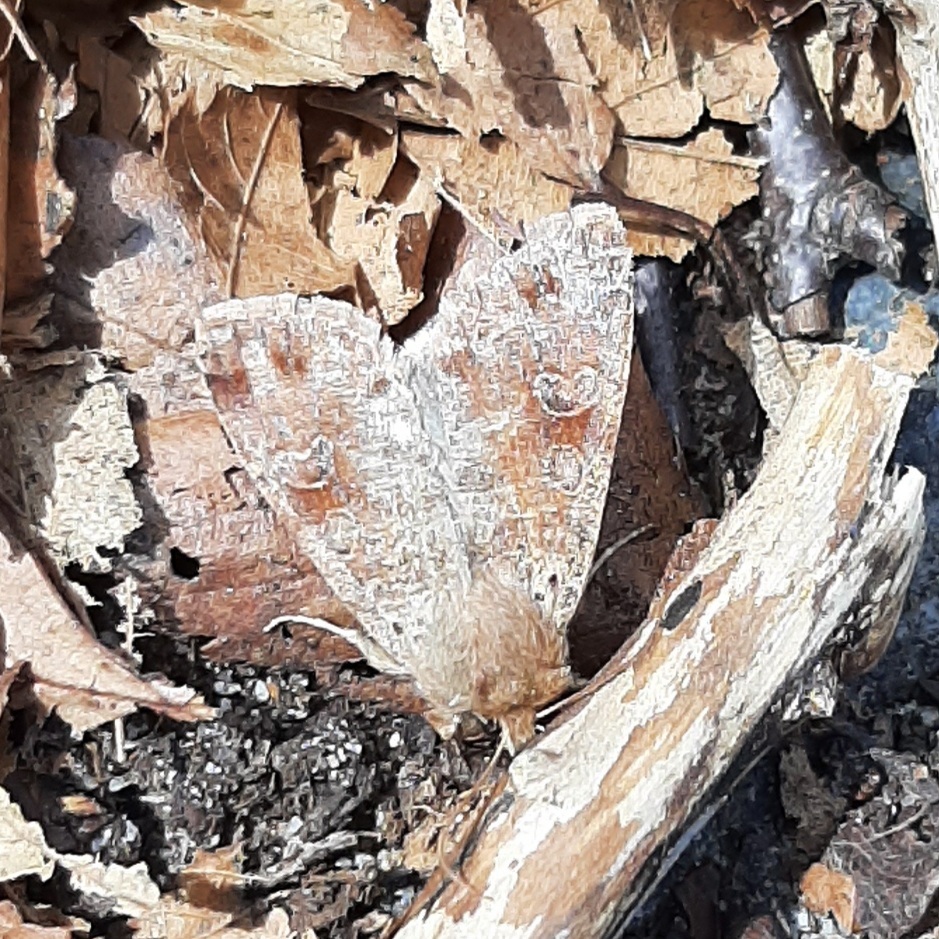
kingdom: Animalia
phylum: Arthropoda
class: Insecta
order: Lepidoptera
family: Noctuidae
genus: Orthosia
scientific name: Orthosia hibisci
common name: Green fruitworm
